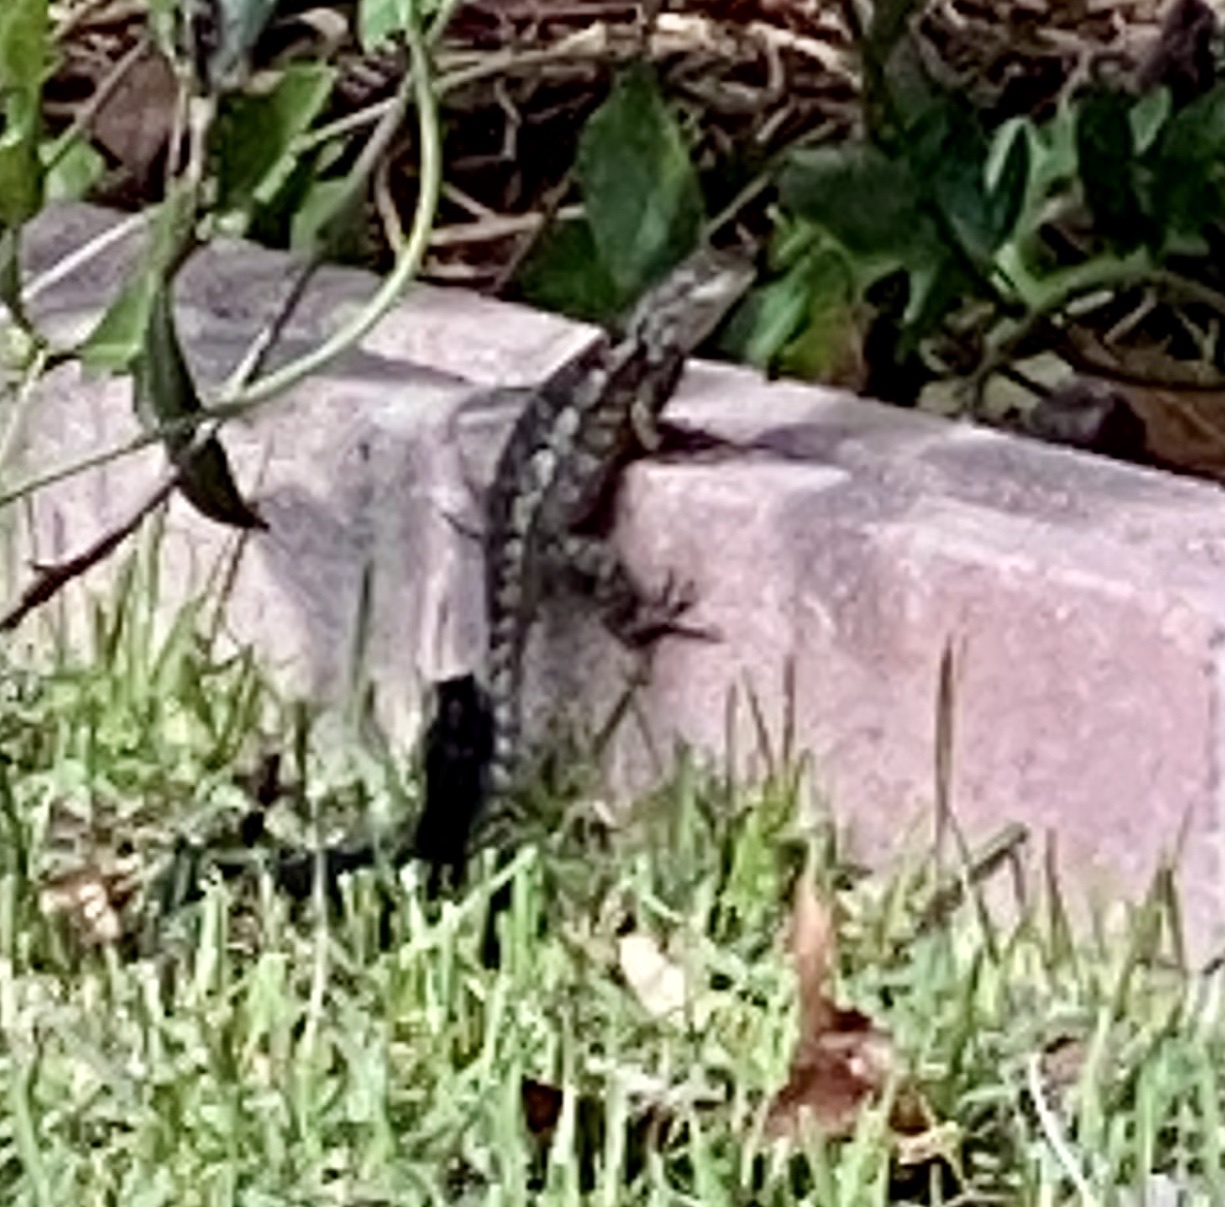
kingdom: Animalia
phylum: Chordata
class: Squamata
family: Phrynosomatidae
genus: Sceloporus
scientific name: Sceloporus olivaceus
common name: Texas spiny lizard
